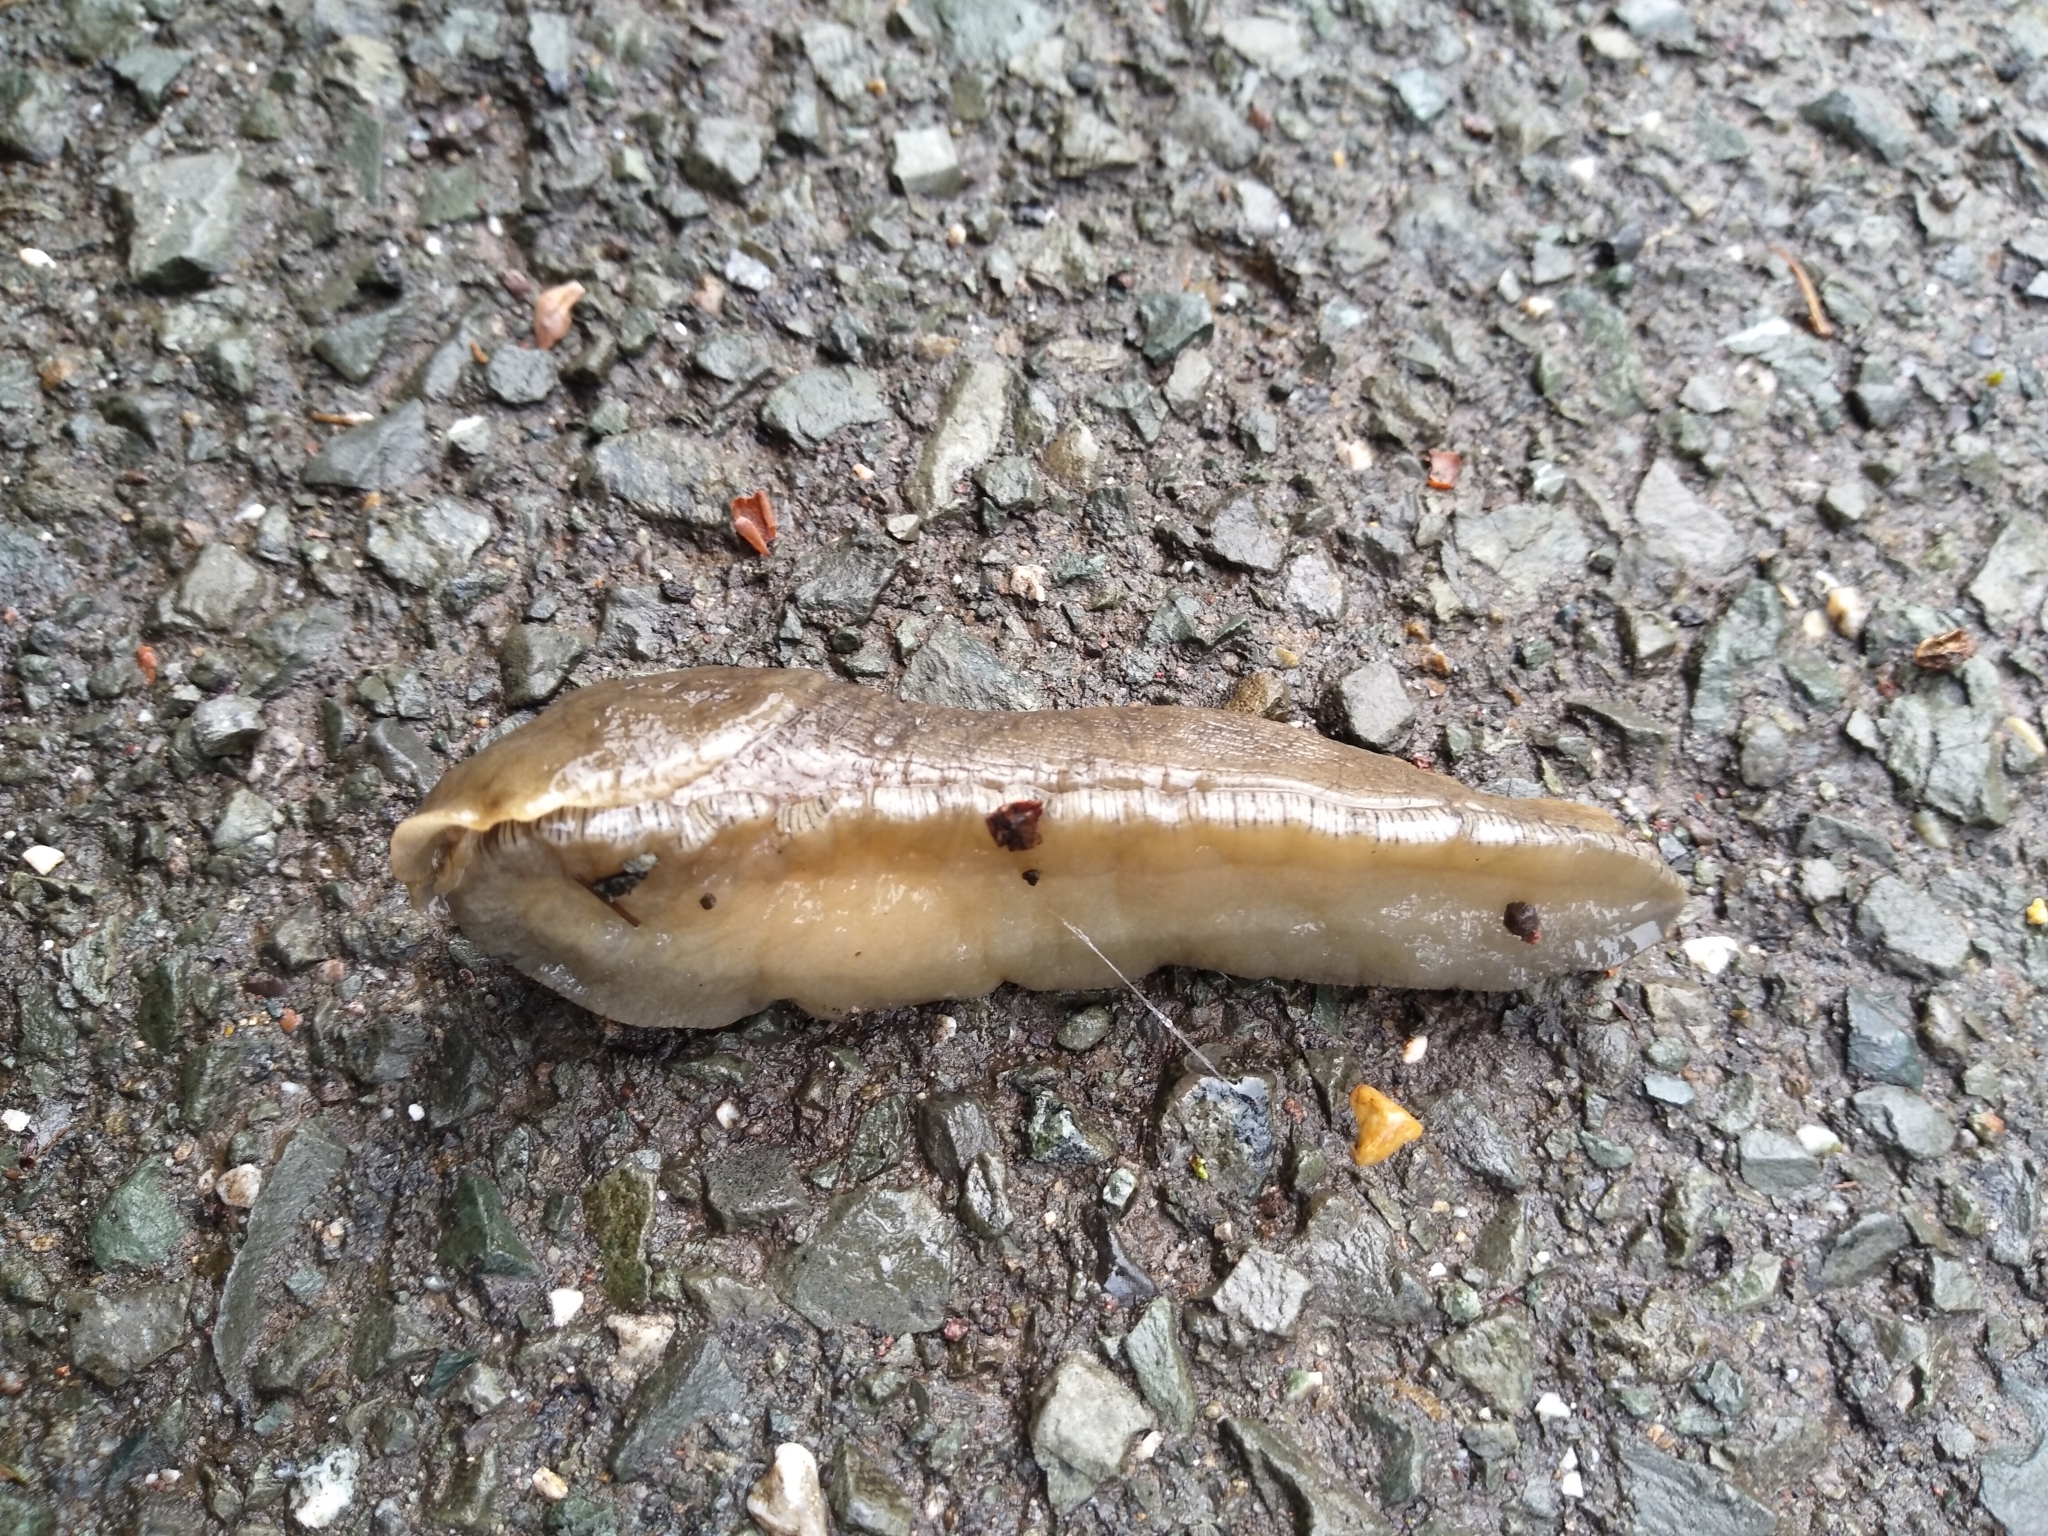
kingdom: Animalia
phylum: Mollusca
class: Gastropoda
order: Stylommatophora
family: Ariolimacidae
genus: Ariolimax
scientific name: Ariolimax buttoni
